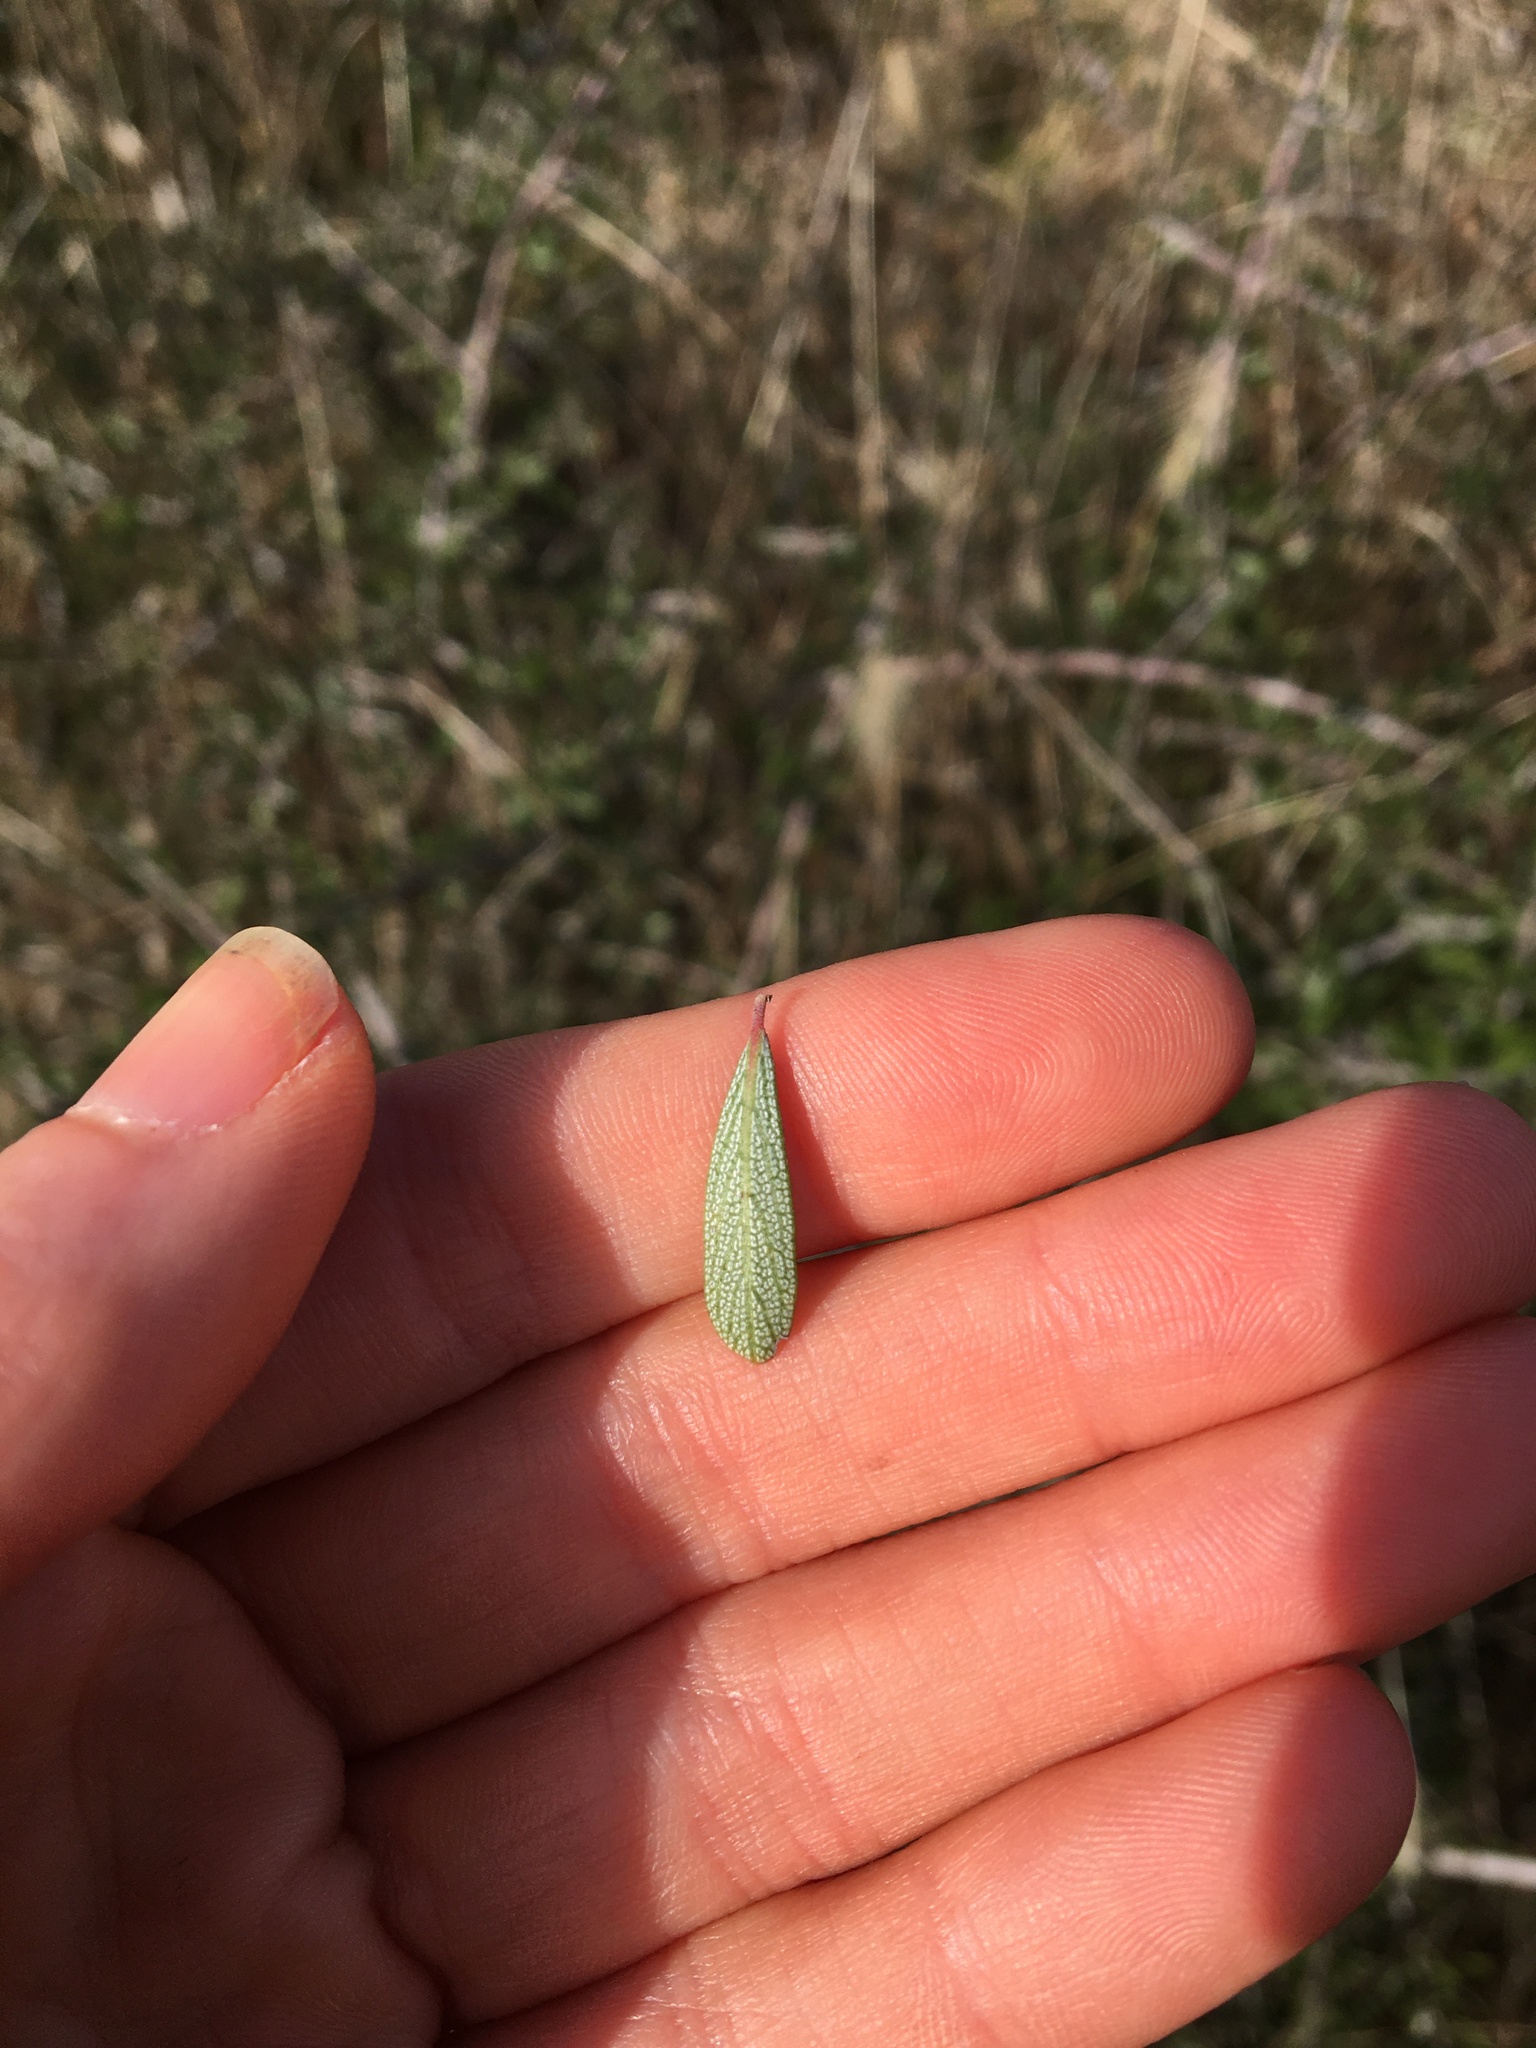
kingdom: Plantae
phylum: Tracheophyta
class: Magnoliopsida
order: Rosales
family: Rhamnaceae
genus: Ceanothus
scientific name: Ceanothus cuneatus
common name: Cuneate ceanothus
